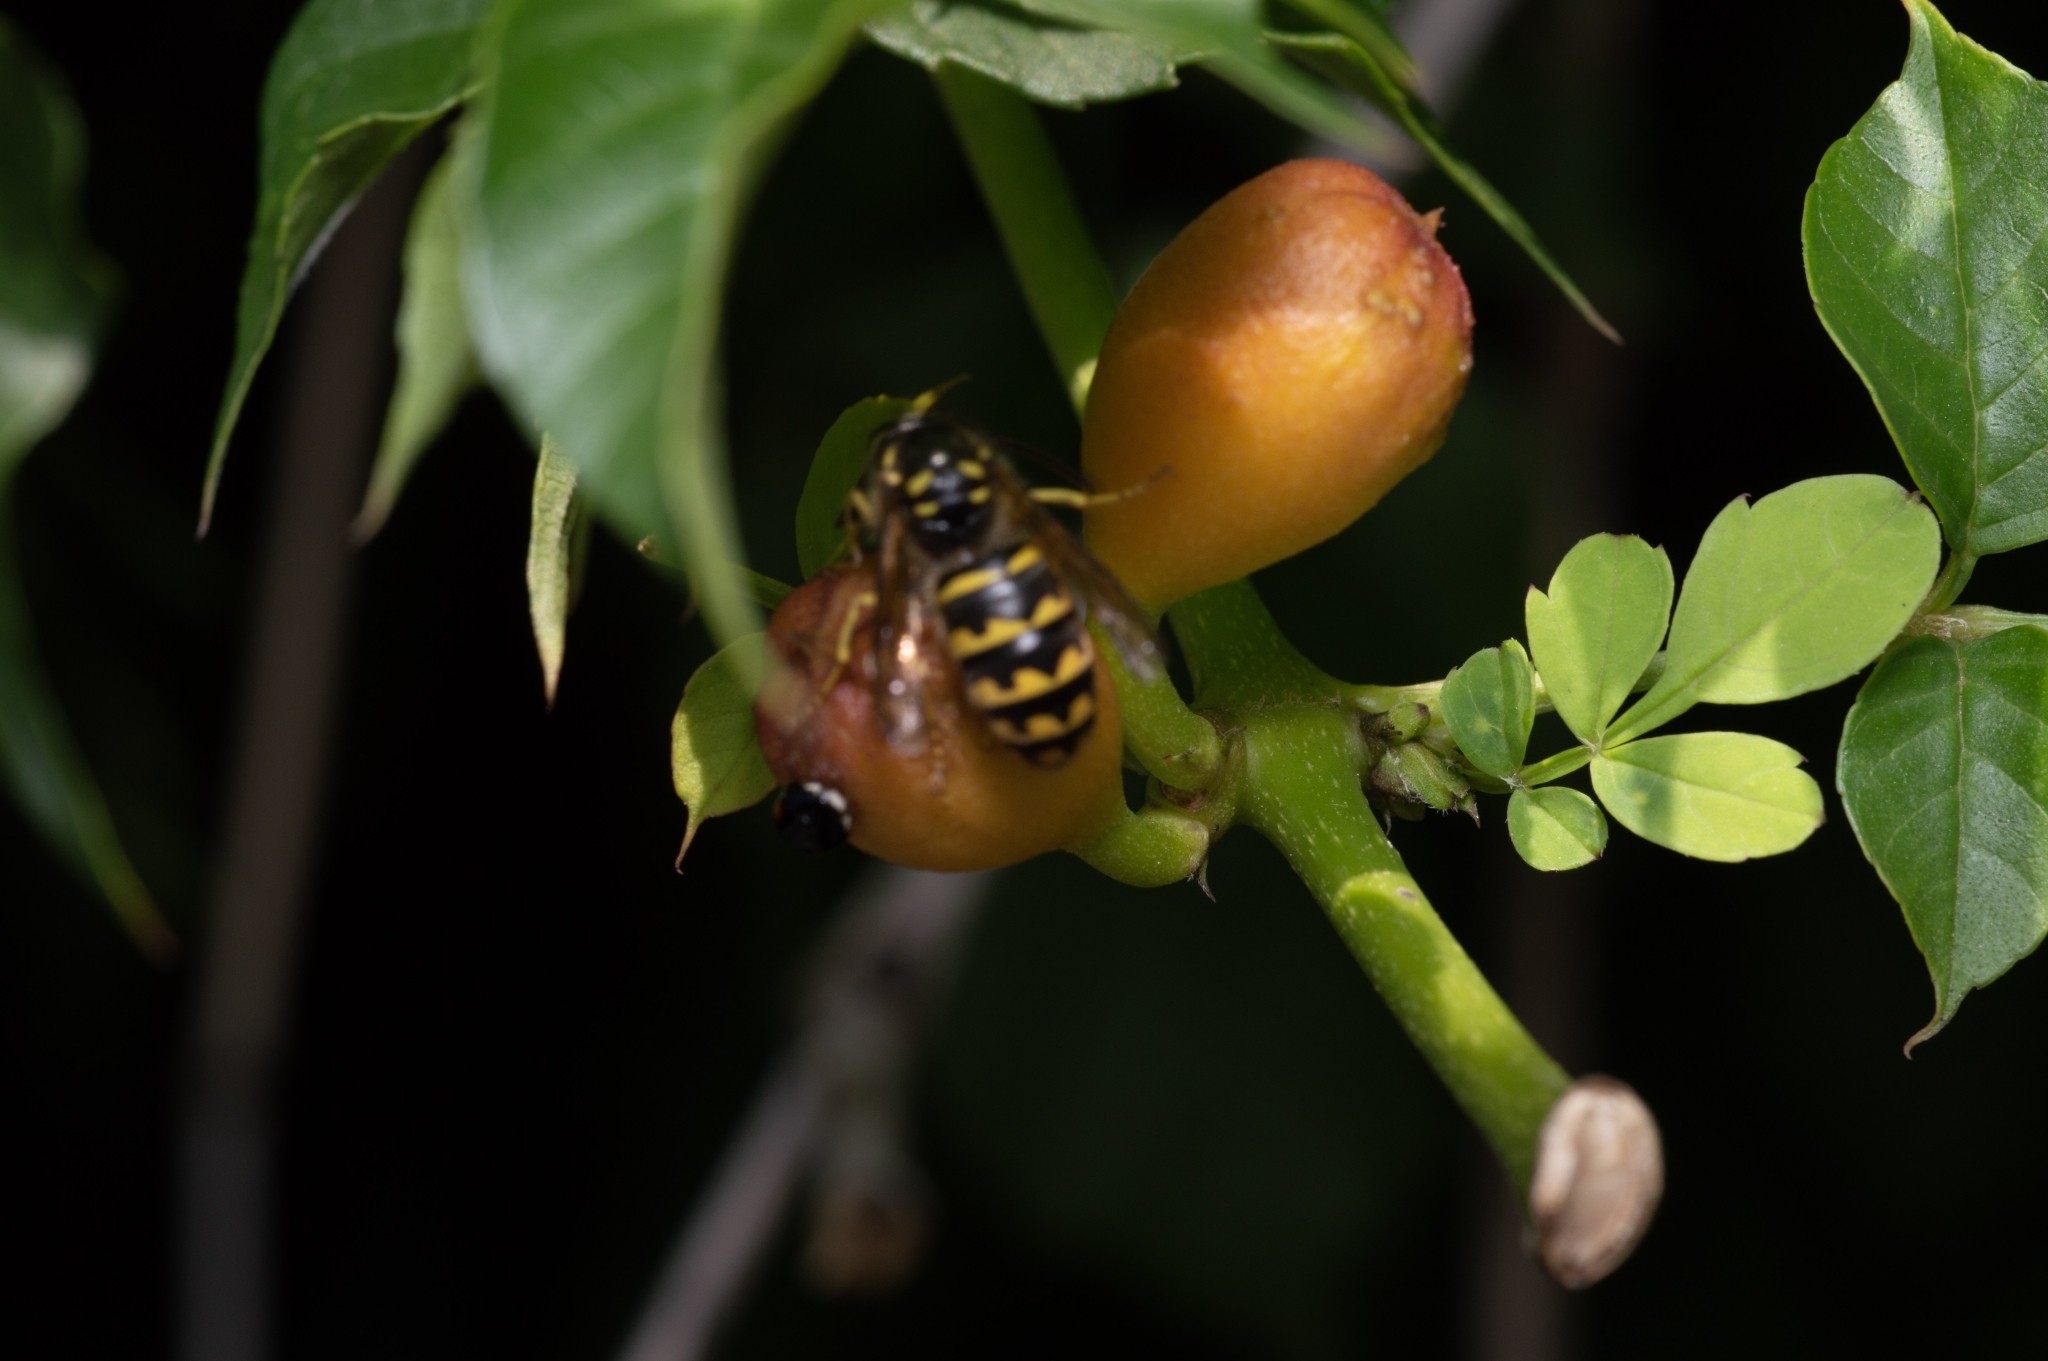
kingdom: Animalia
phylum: Arthropoda
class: Insecta
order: Hymenoptera
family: Vespidae
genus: Dolichovespula
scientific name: Dolichovespula arenaria
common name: Aerial yellowjacket
